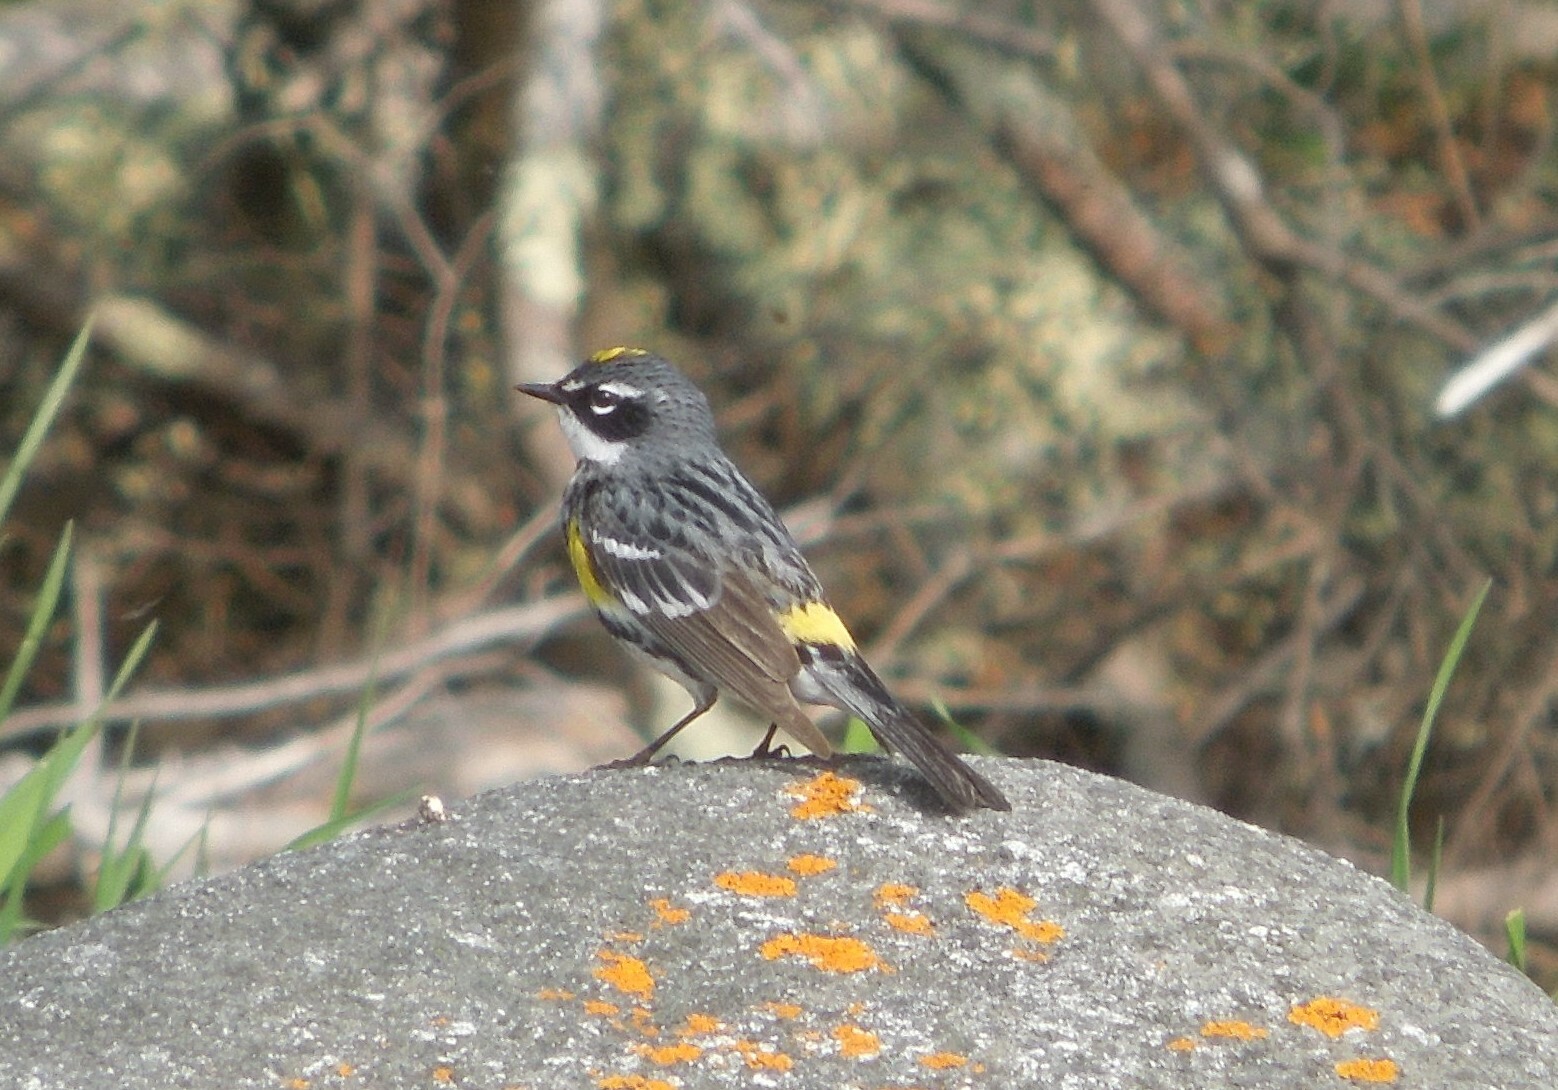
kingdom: Animalia
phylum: Chordata
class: Aves
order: Passeriformes
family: Parulidae
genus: Setophaga
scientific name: Setophaga coronata
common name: Myrtle warbler
